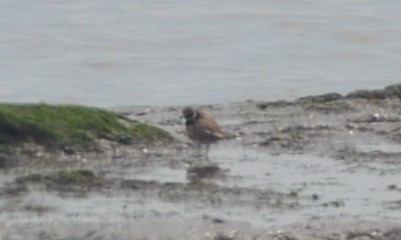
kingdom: Animalia
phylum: Chordata
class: Aves
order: Charadriiformes
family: Charadriidae
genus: Charadrius
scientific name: Charadrius hiaticula
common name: Common ringed plover
